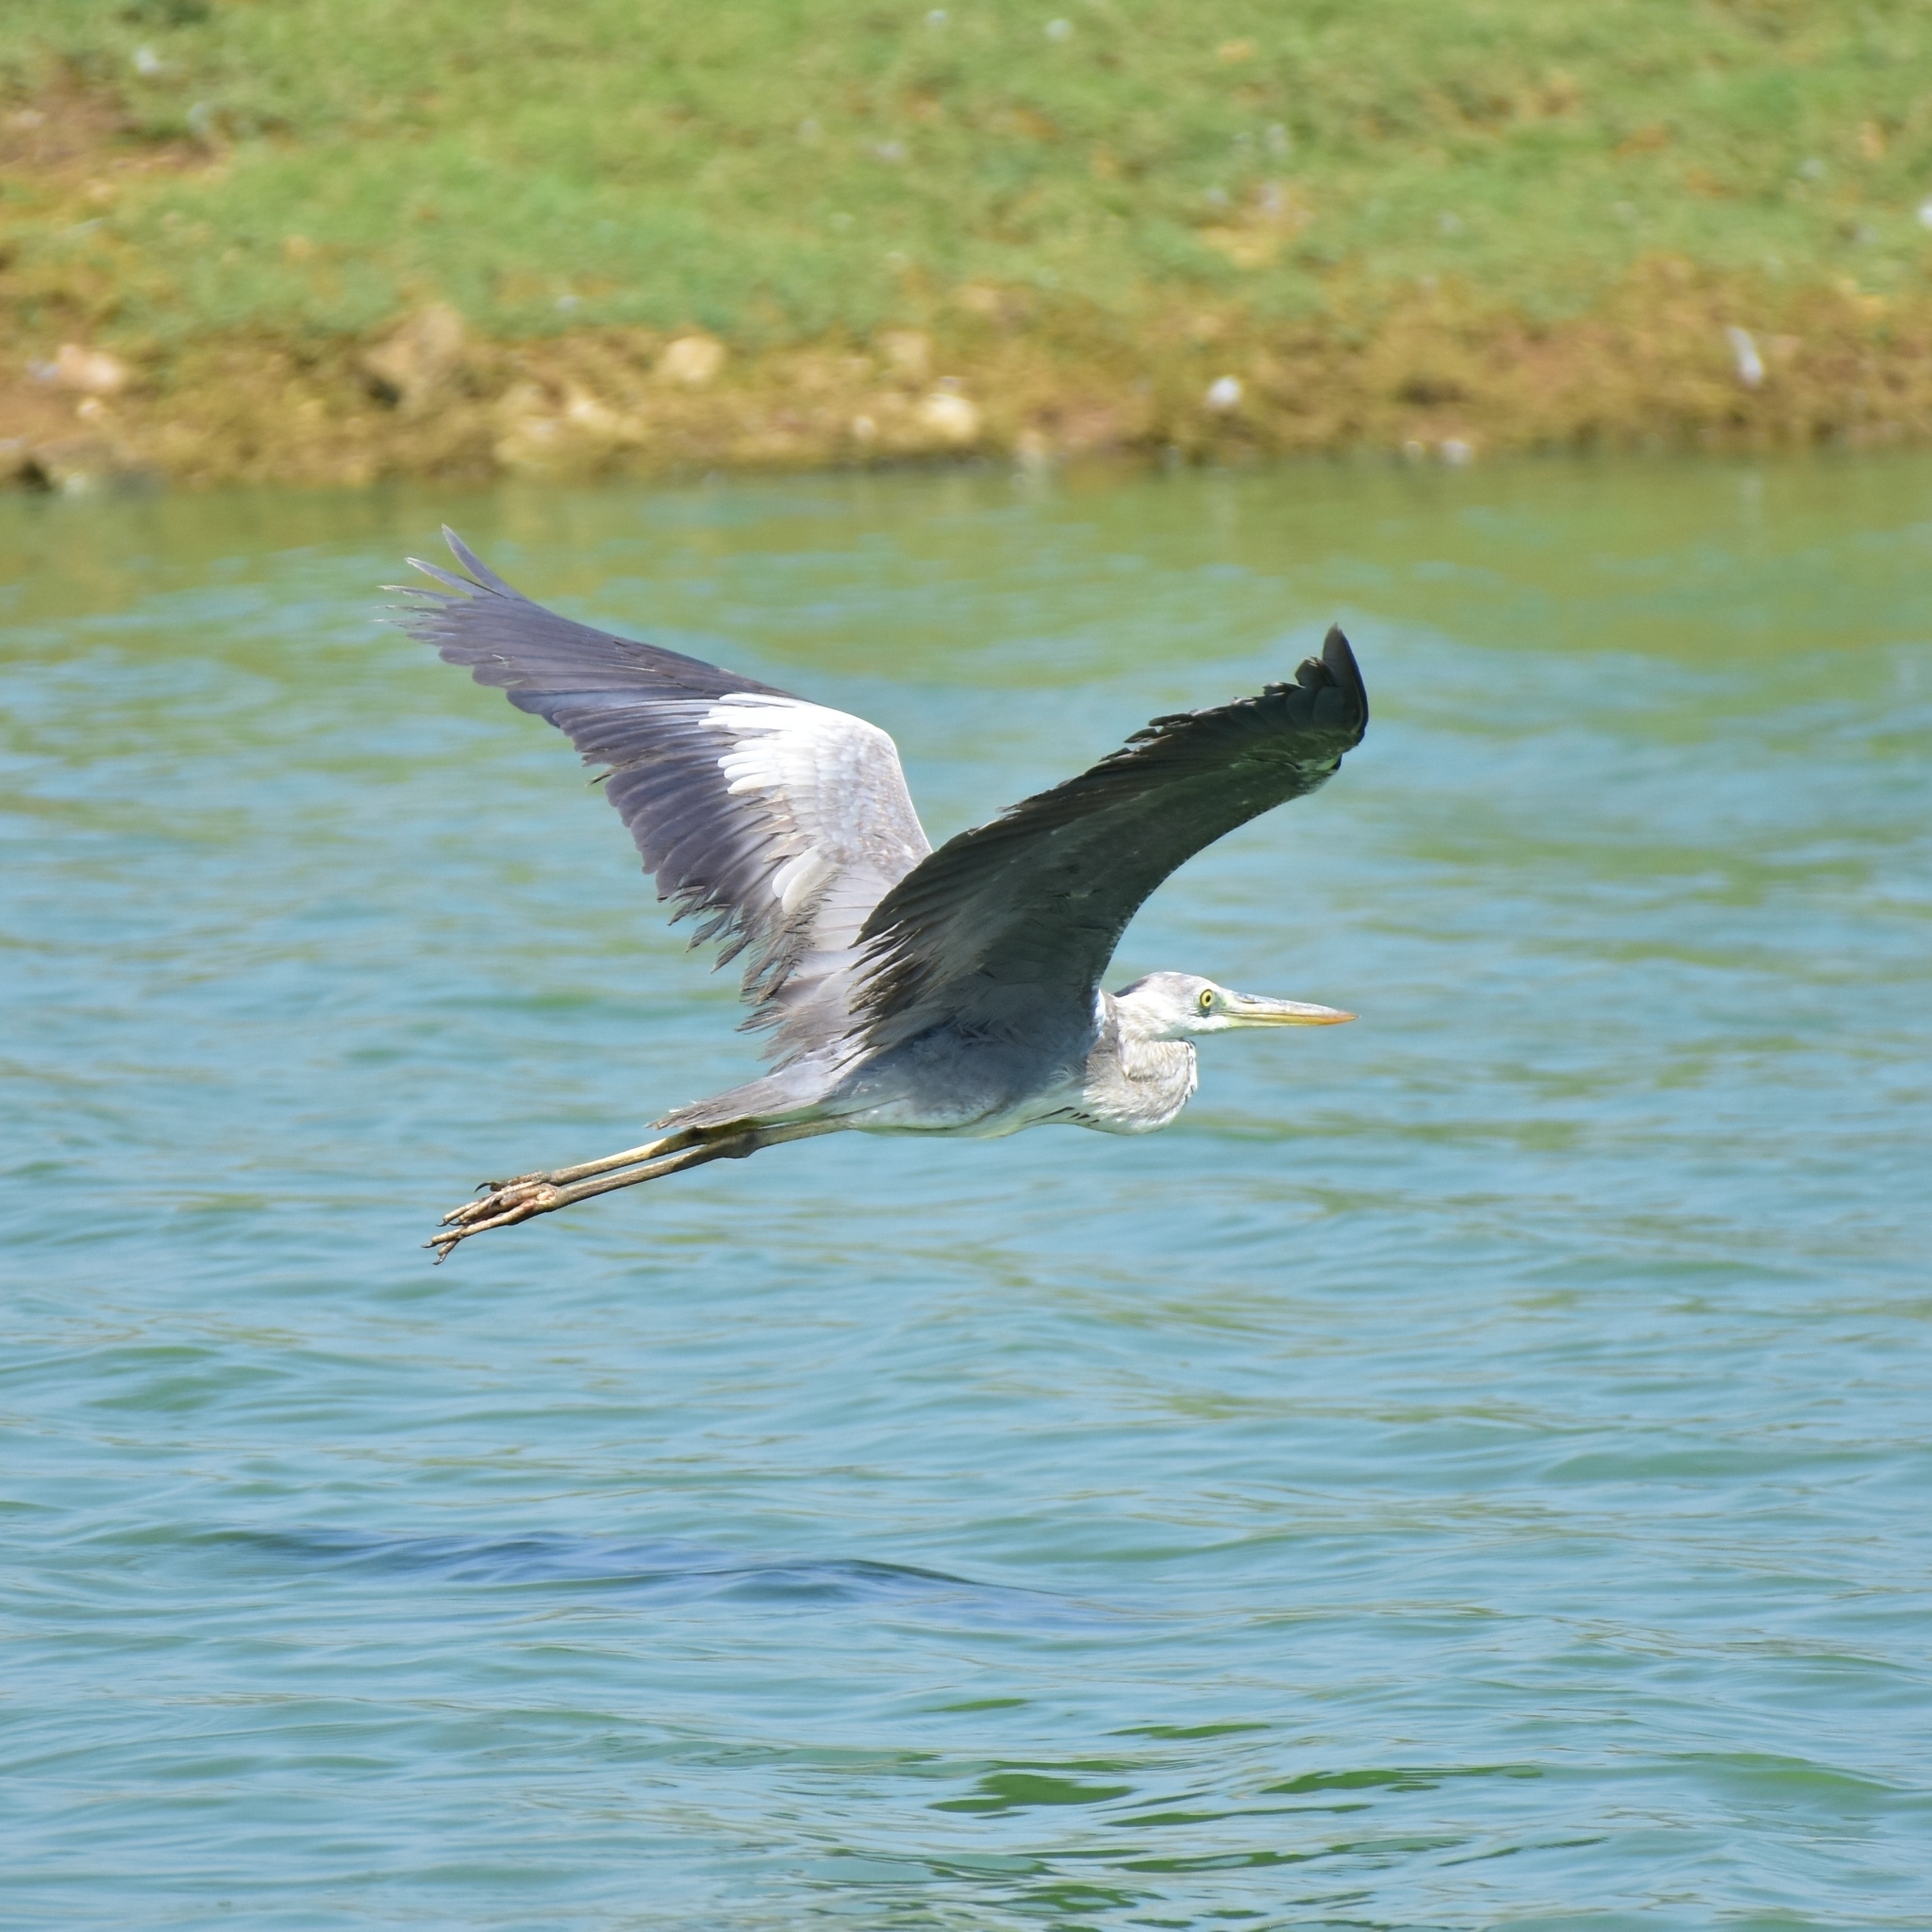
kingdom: Animalia
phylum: Chordata
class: Aves
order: Pelecaniformes
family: Ardeidae
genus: Ardea
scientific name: Ardea cinerea
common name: Grey heron
